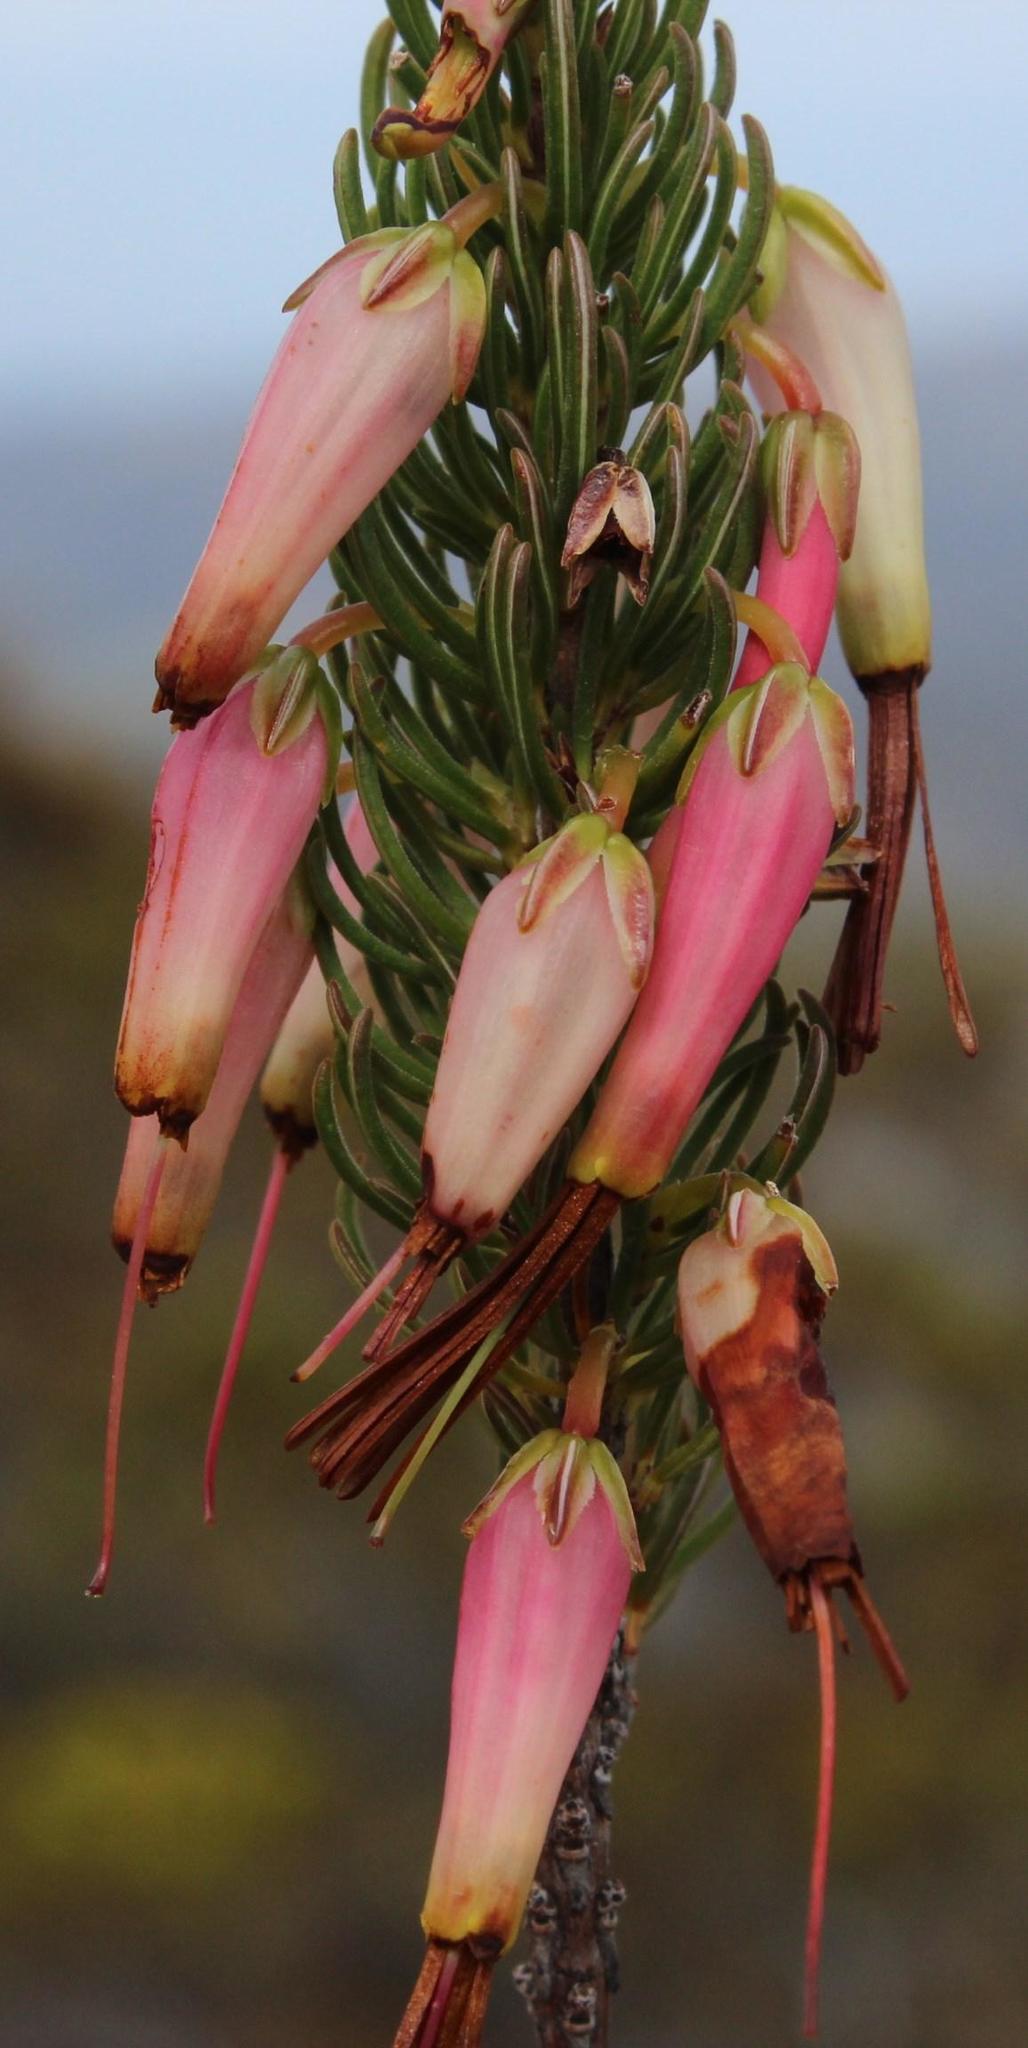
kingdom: Plantae
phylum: Tracheophyta
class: Magnoliopsida
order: Ericales
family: Ericaceae
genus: Erica
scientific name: Erica plukenetii
